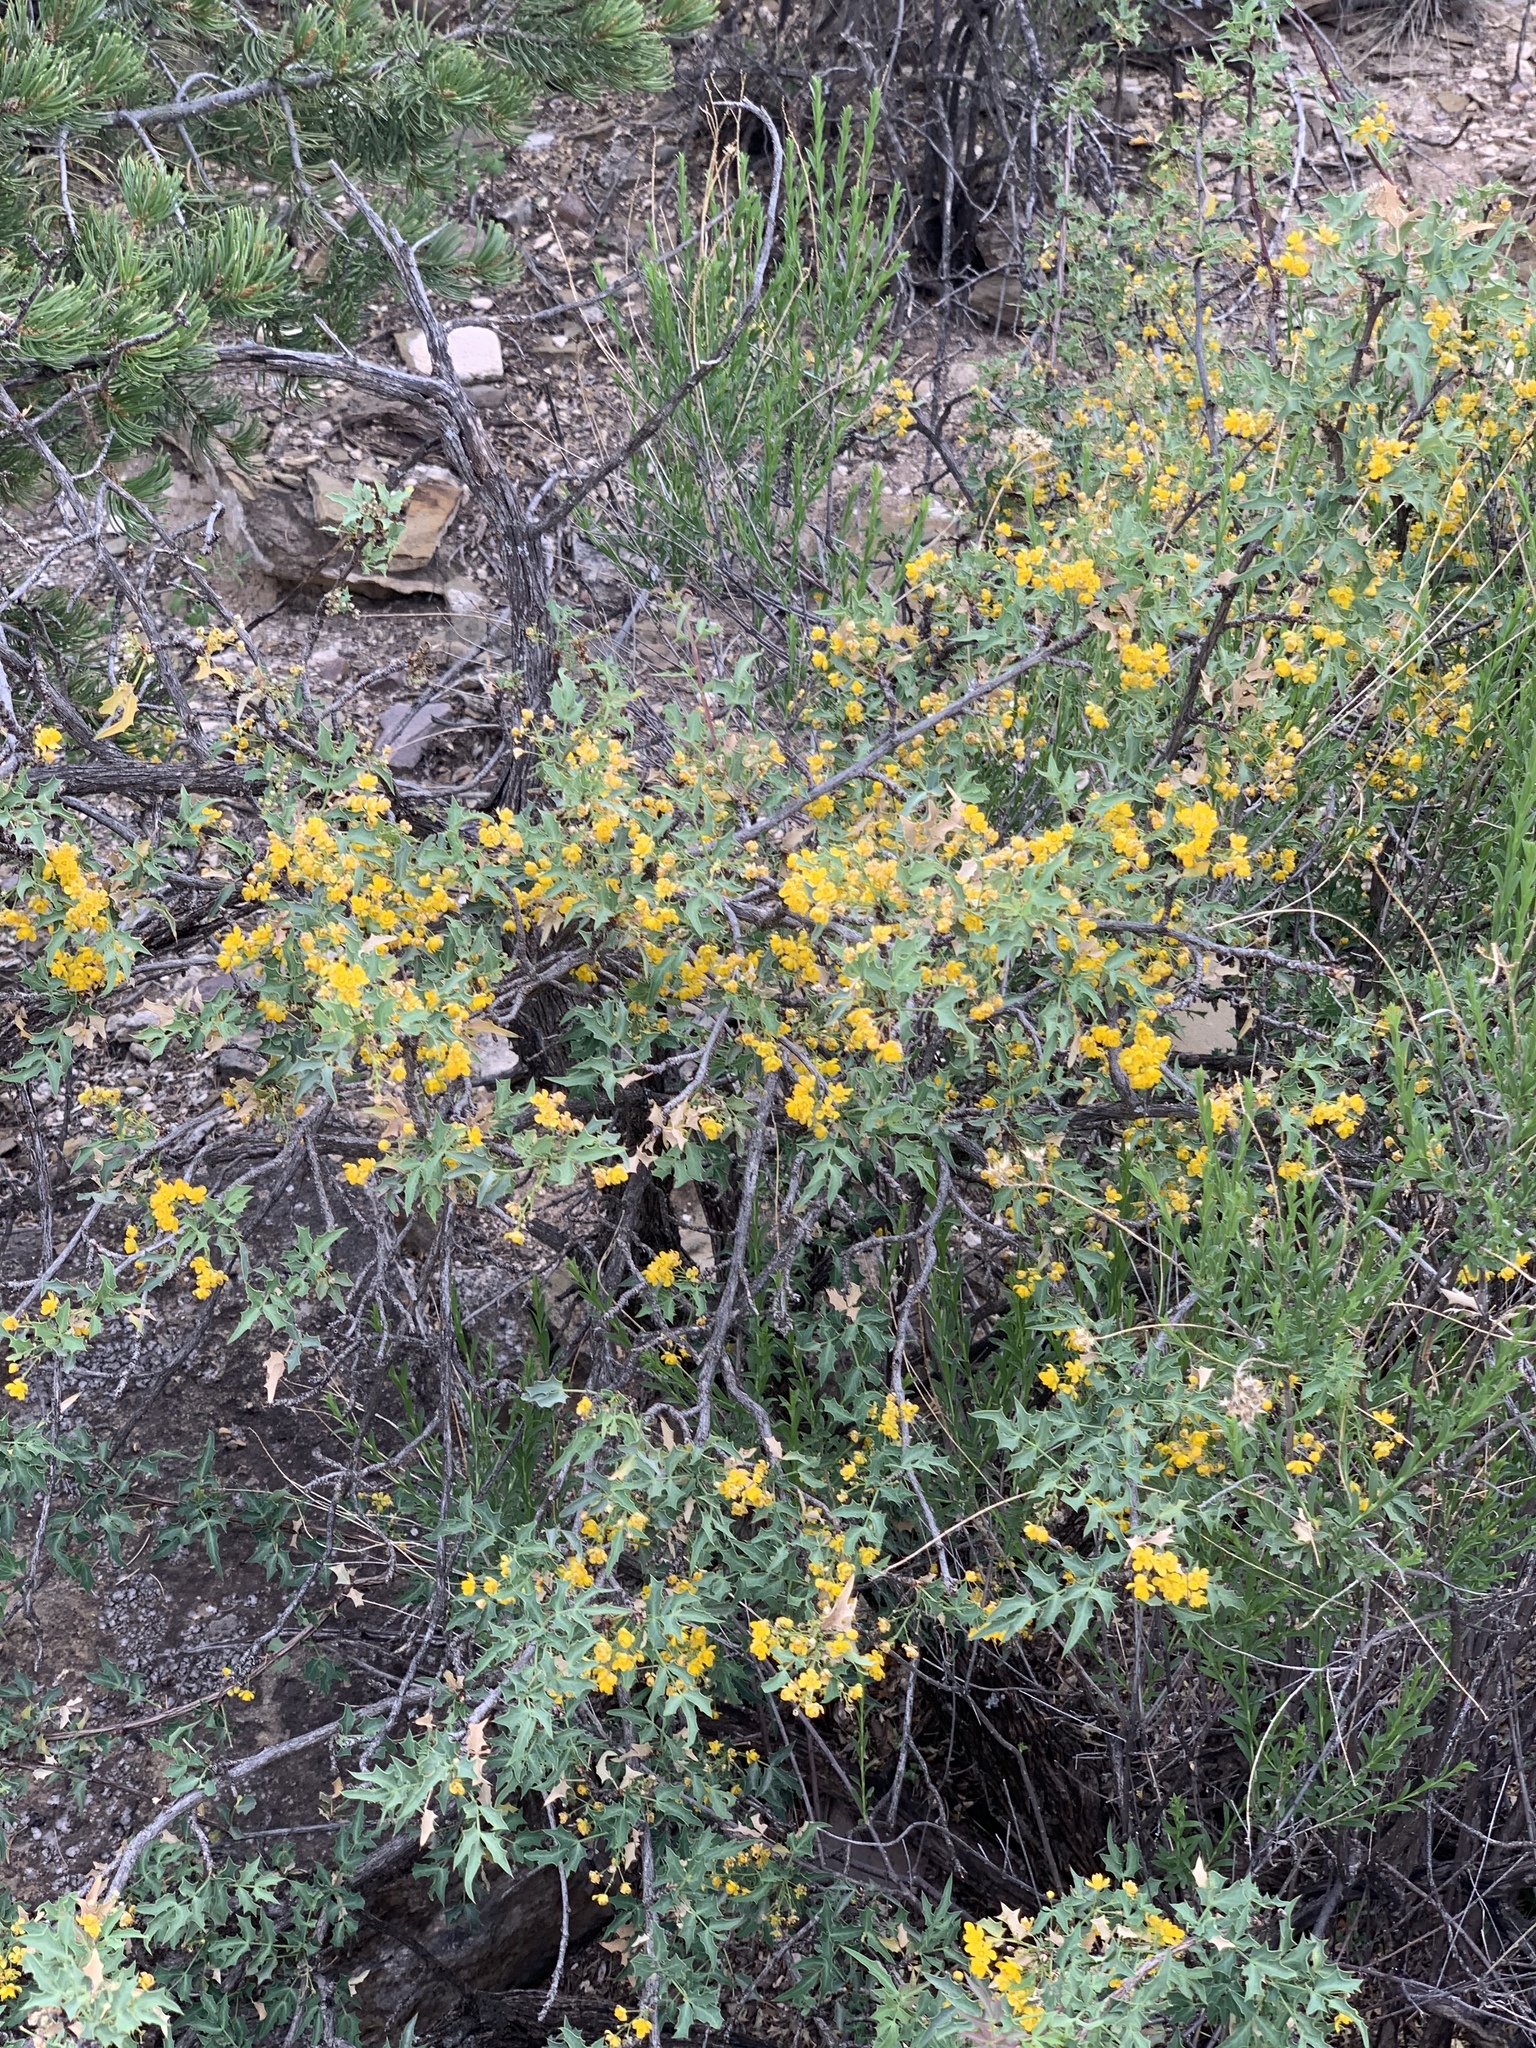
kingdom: Plantae
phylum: Tracheophyta
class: Magnoliopsida
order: Ranunculales
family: Berberidaceae
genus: Alloberberis
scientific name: Alloberberis haematocarpa
